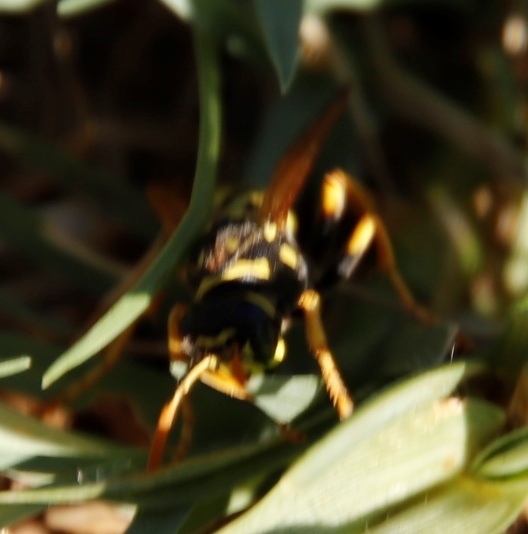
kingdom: Animalia
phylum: Arthropoda
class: Insecta
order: Hymenoptera
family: Eumenidae
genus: Polistes
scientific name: Polistes dominula
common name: Paper wasp
